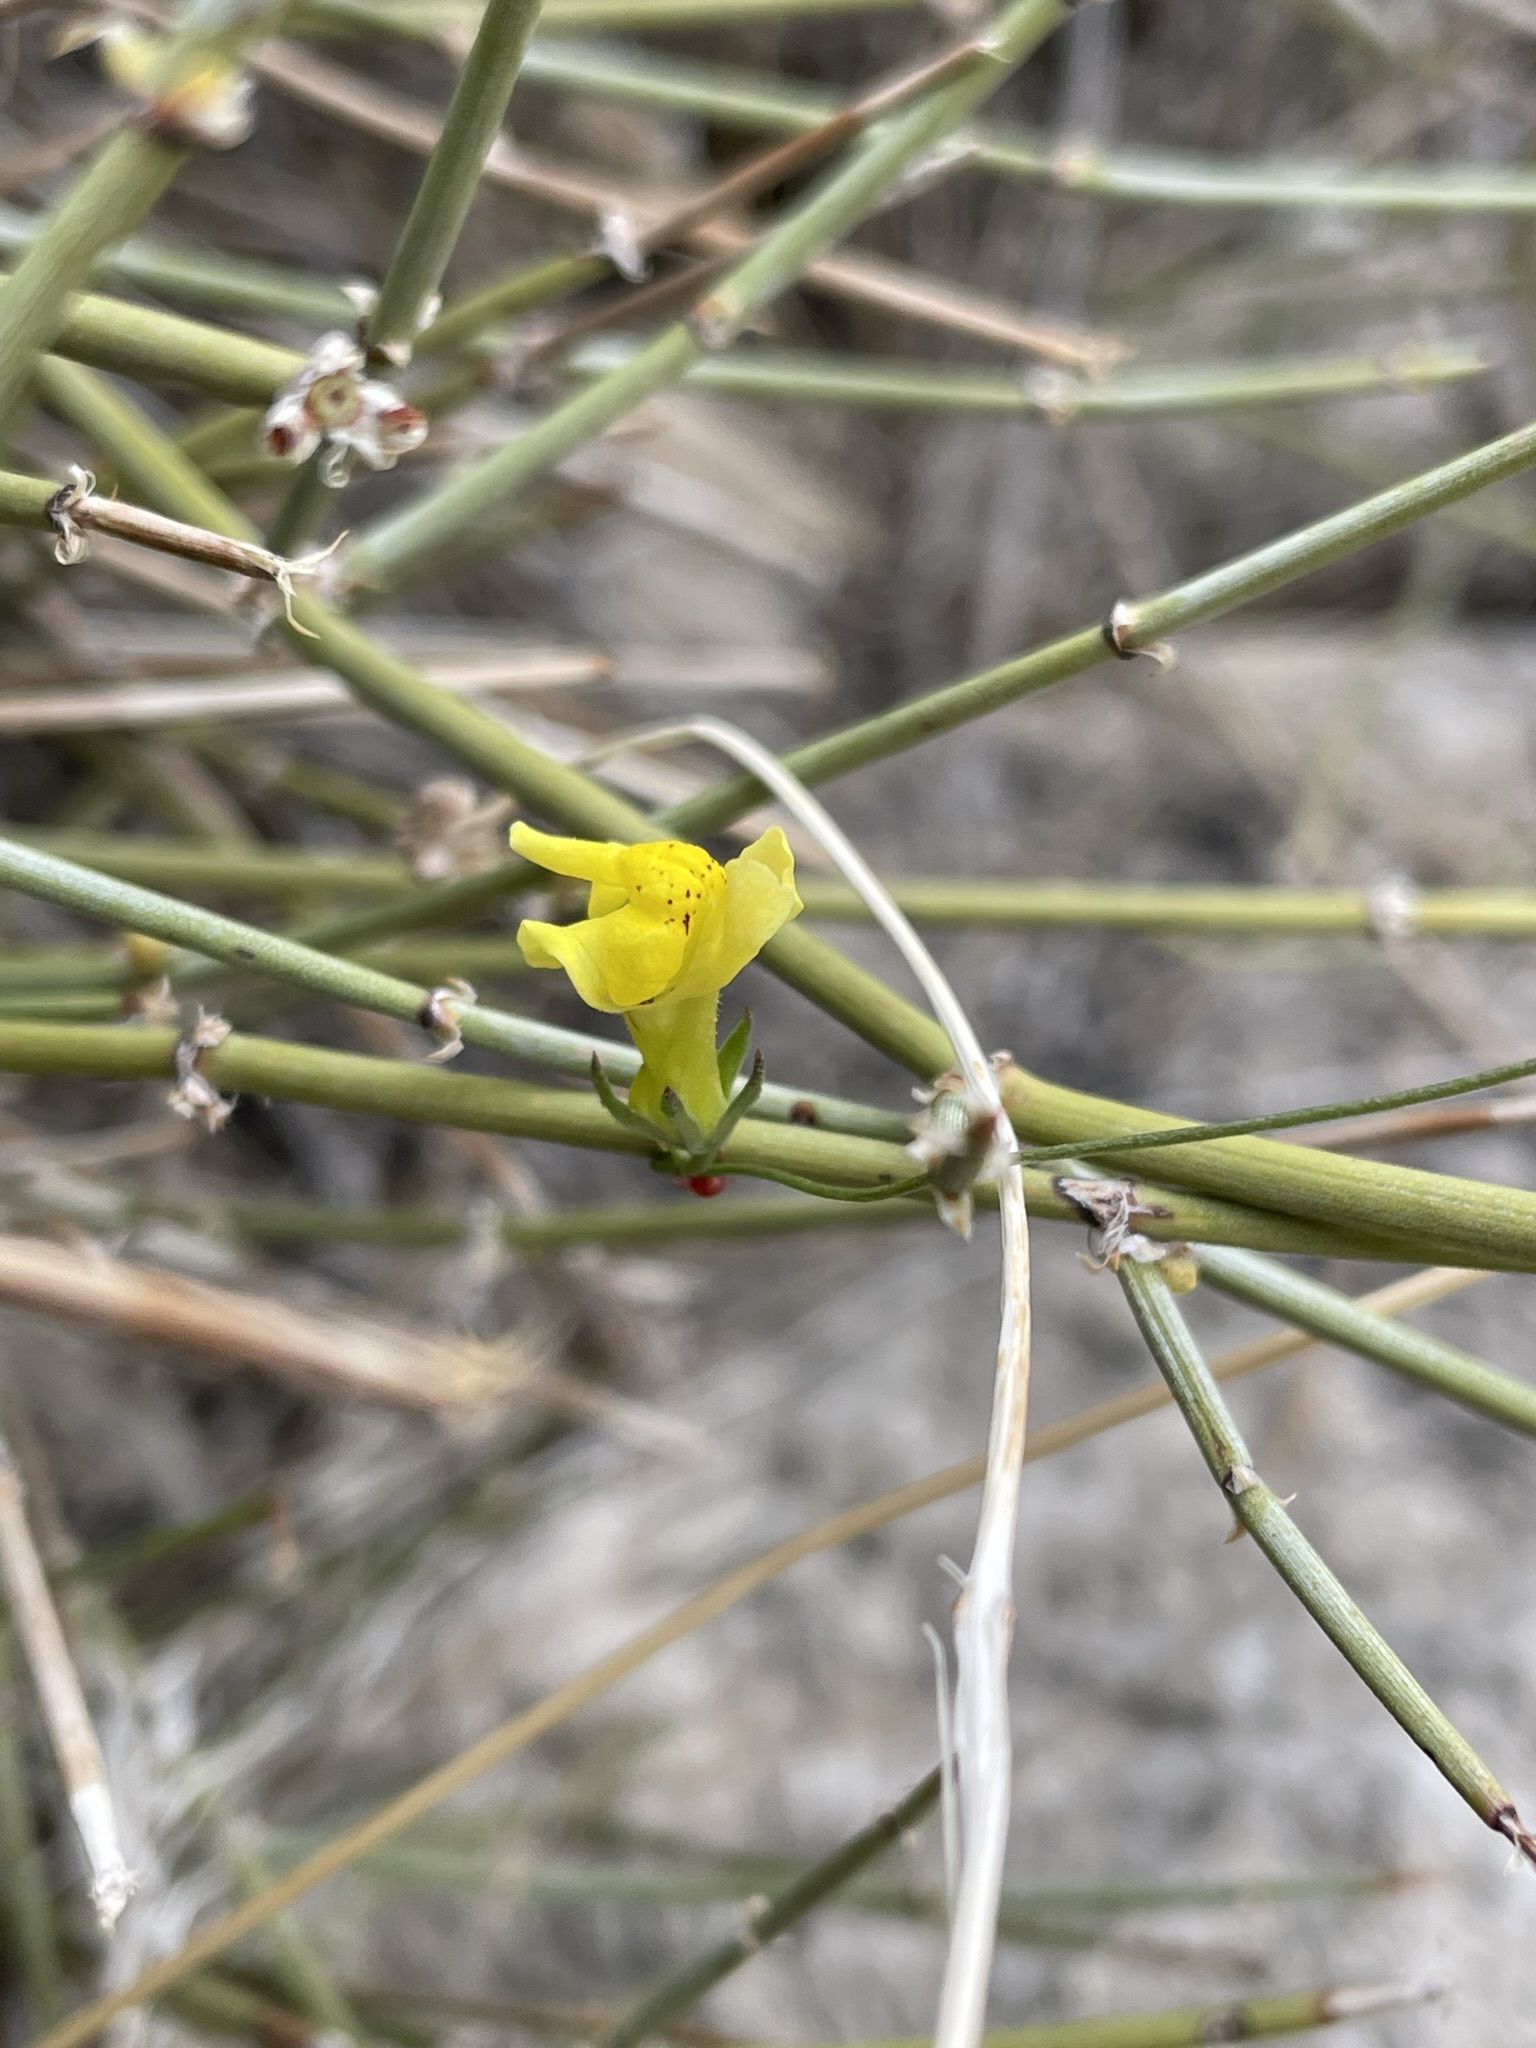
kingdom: Plantae
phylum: Tracheophyta
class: Magnoliopsida
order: Lamiales
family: Plantaginaceae
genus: Neogaerrhinum
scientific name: Neogaerrhinum filipes
